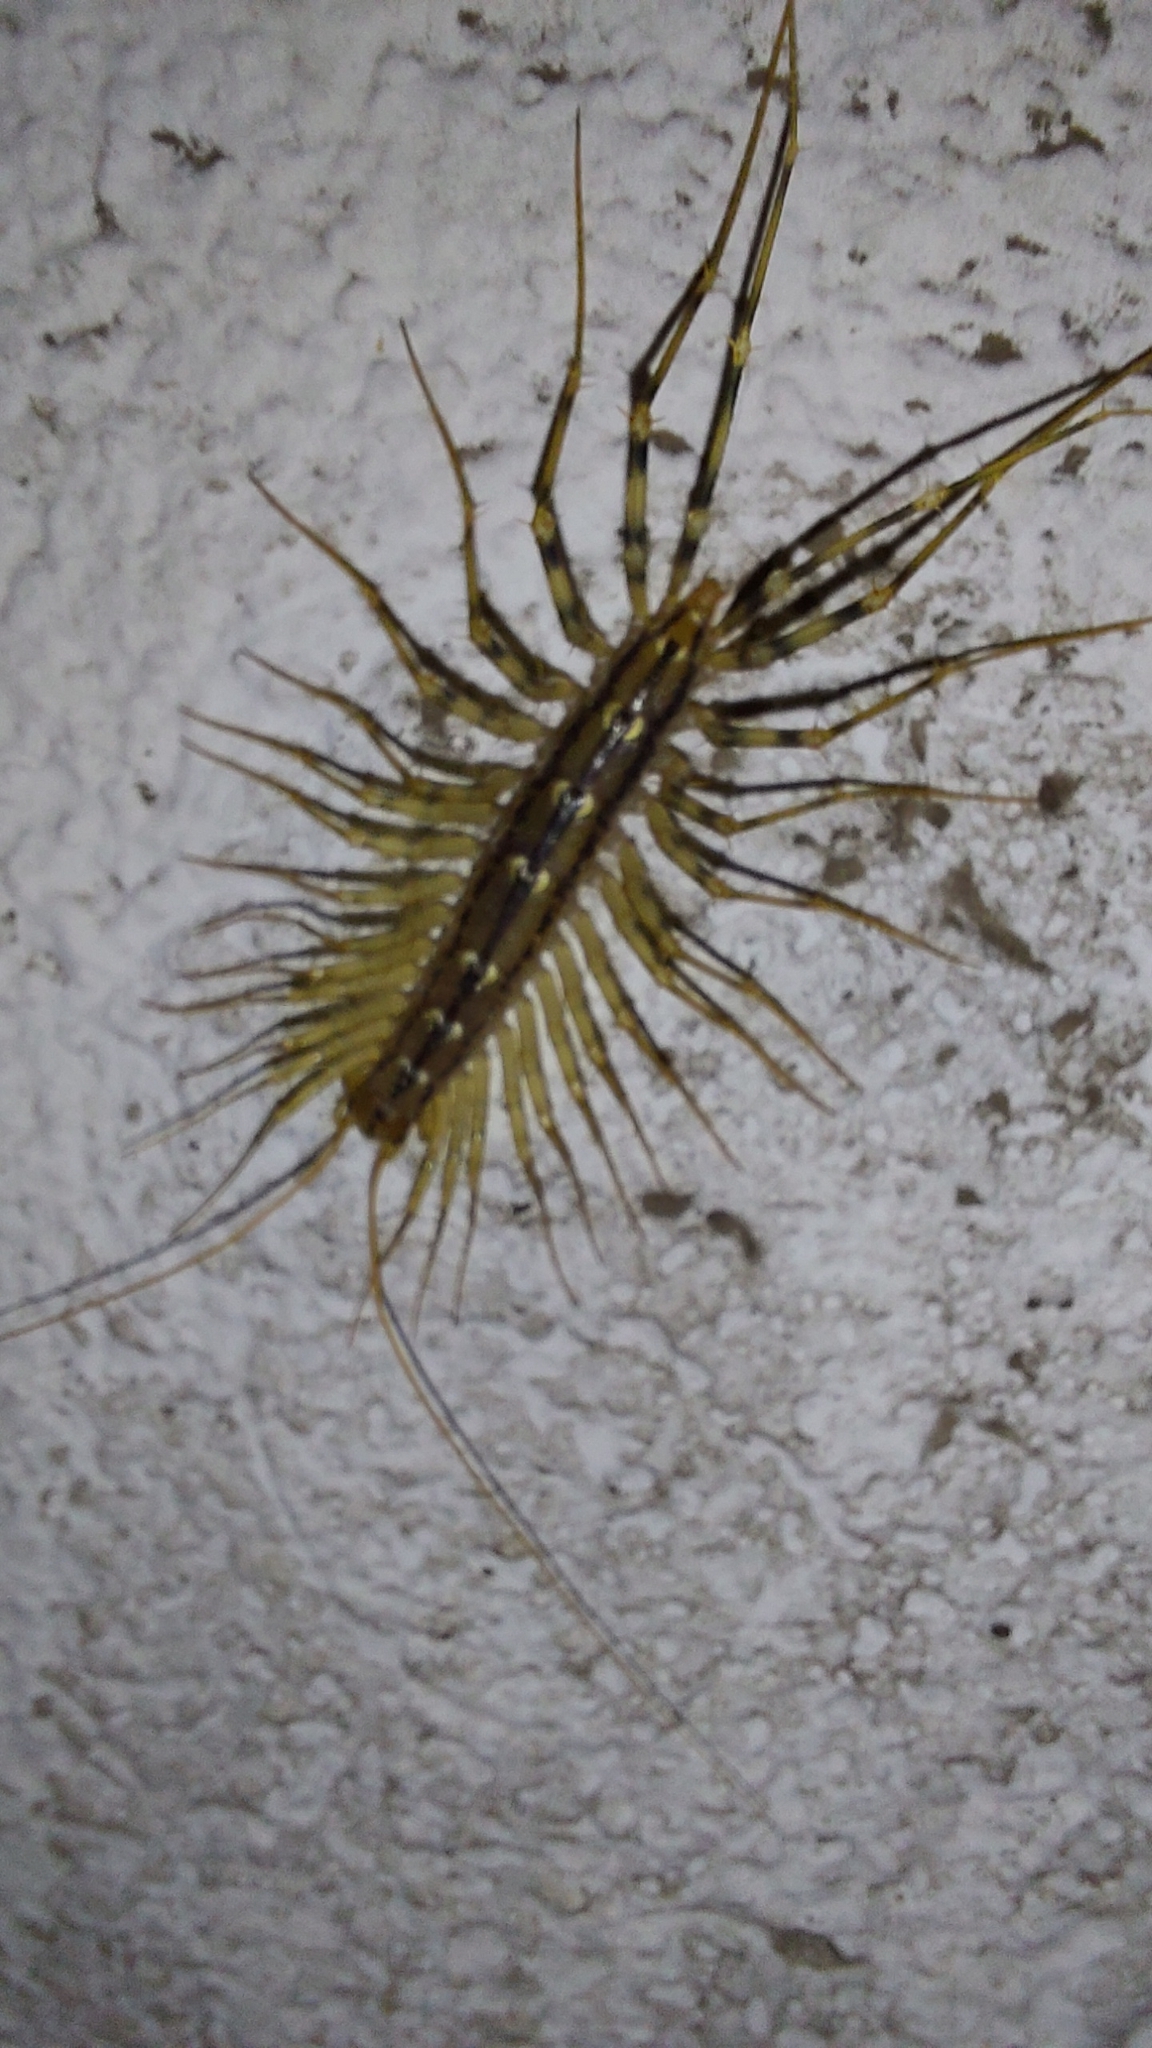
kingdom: Animalia
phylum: Arthropoda
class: Chilopoda
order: Scutigeromorpha
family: Scutigeridae
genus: Scutigera
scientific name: Scutigera coleoptrata
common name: House centipede
